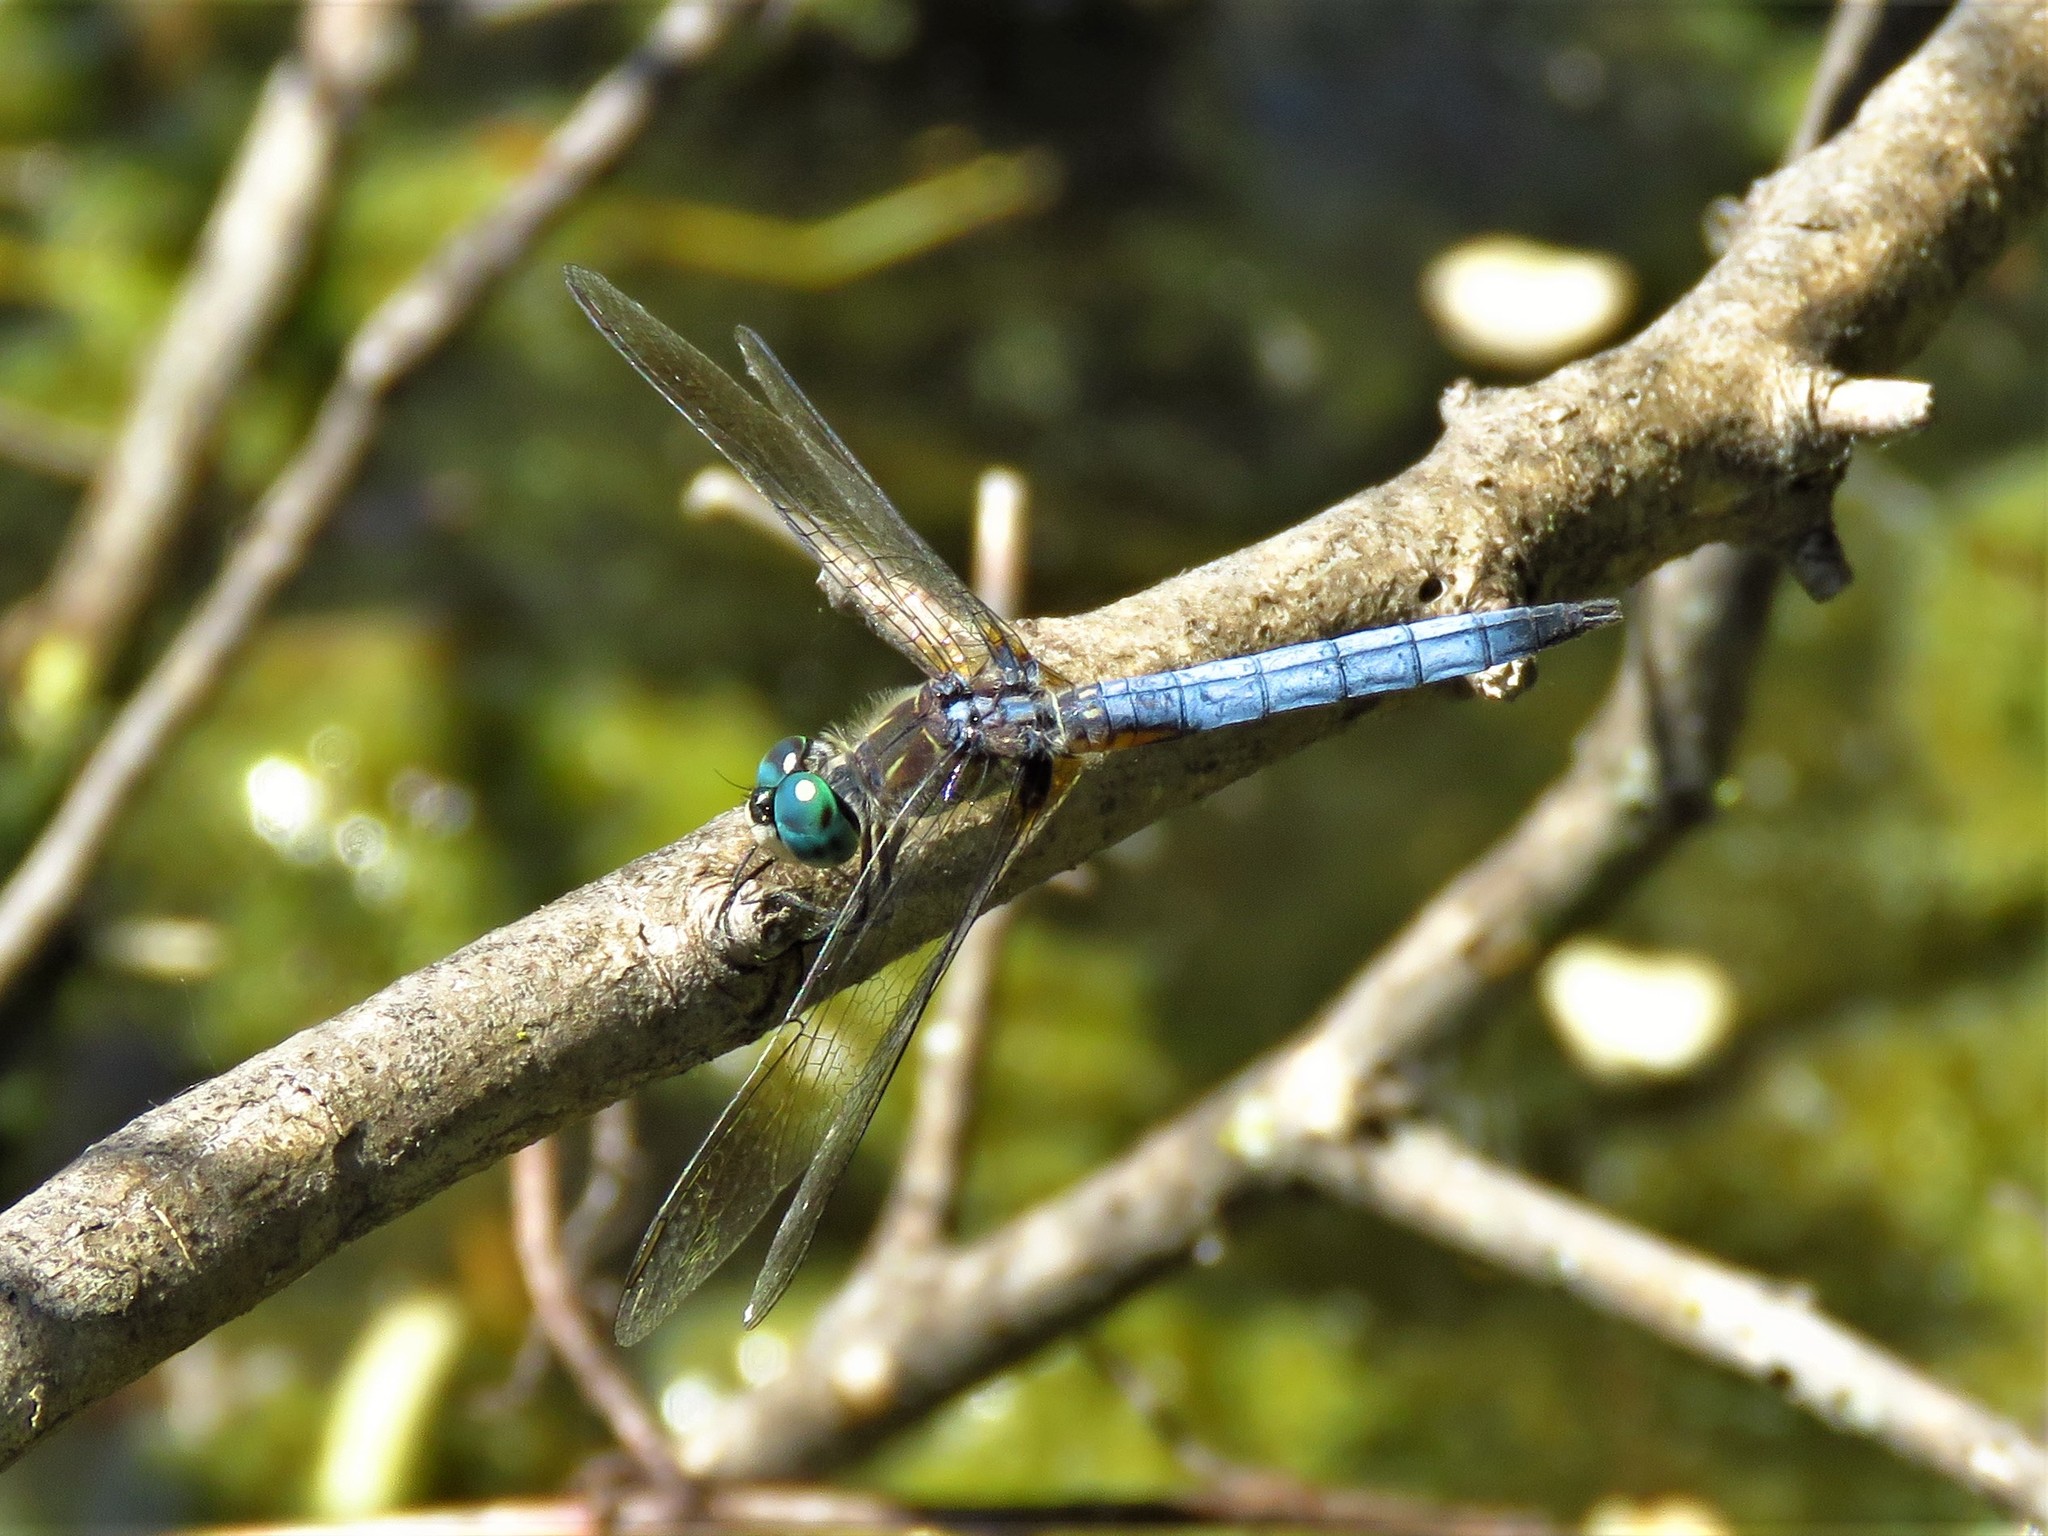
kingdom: Animalia
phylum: Arthropoda
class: Insecta
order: Odonata
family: Libellulidae
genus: Pachydiplax
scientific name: Pachydiplax longipennis
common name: Blue dasher
